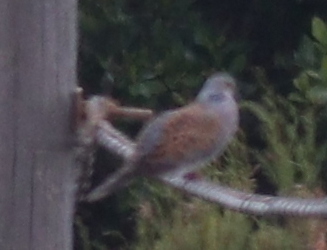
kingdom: Animalia
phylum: Chordata
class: Aves
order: Columbiformes
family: Columbidae
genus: Streptopelia
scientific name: Streptopelia turtur
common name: European turtle dove
